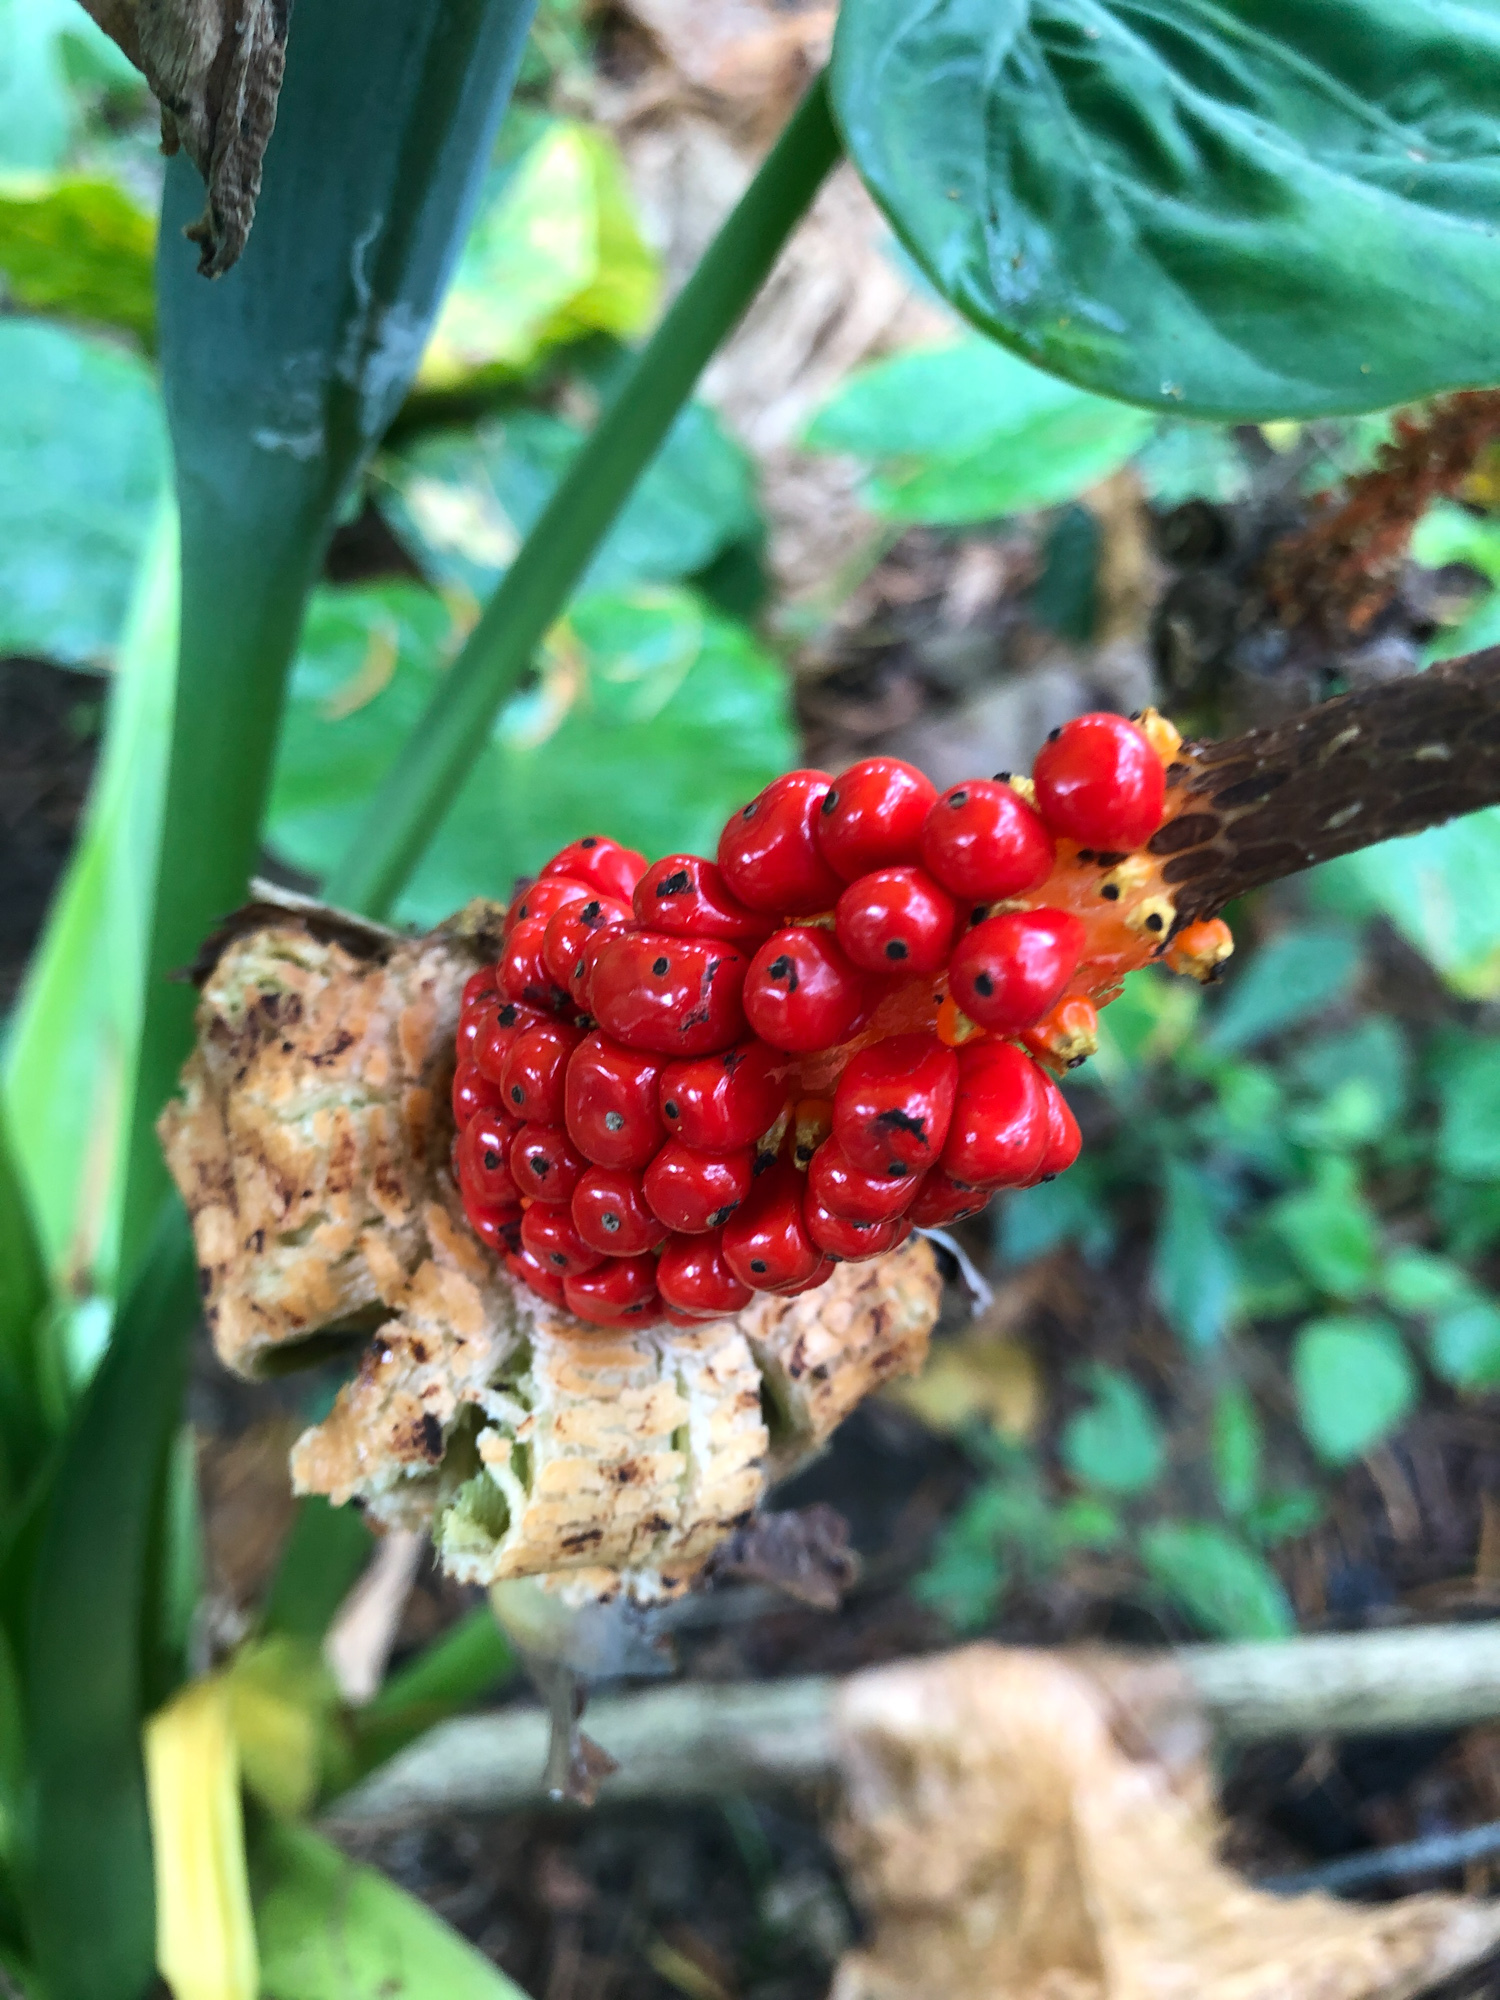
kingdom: Plantae
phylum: Tracheophyta
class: Liliopsida
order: Alismatales
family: Araceae
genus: Alocasia
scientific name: Alocasia odora
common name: Asian taro
